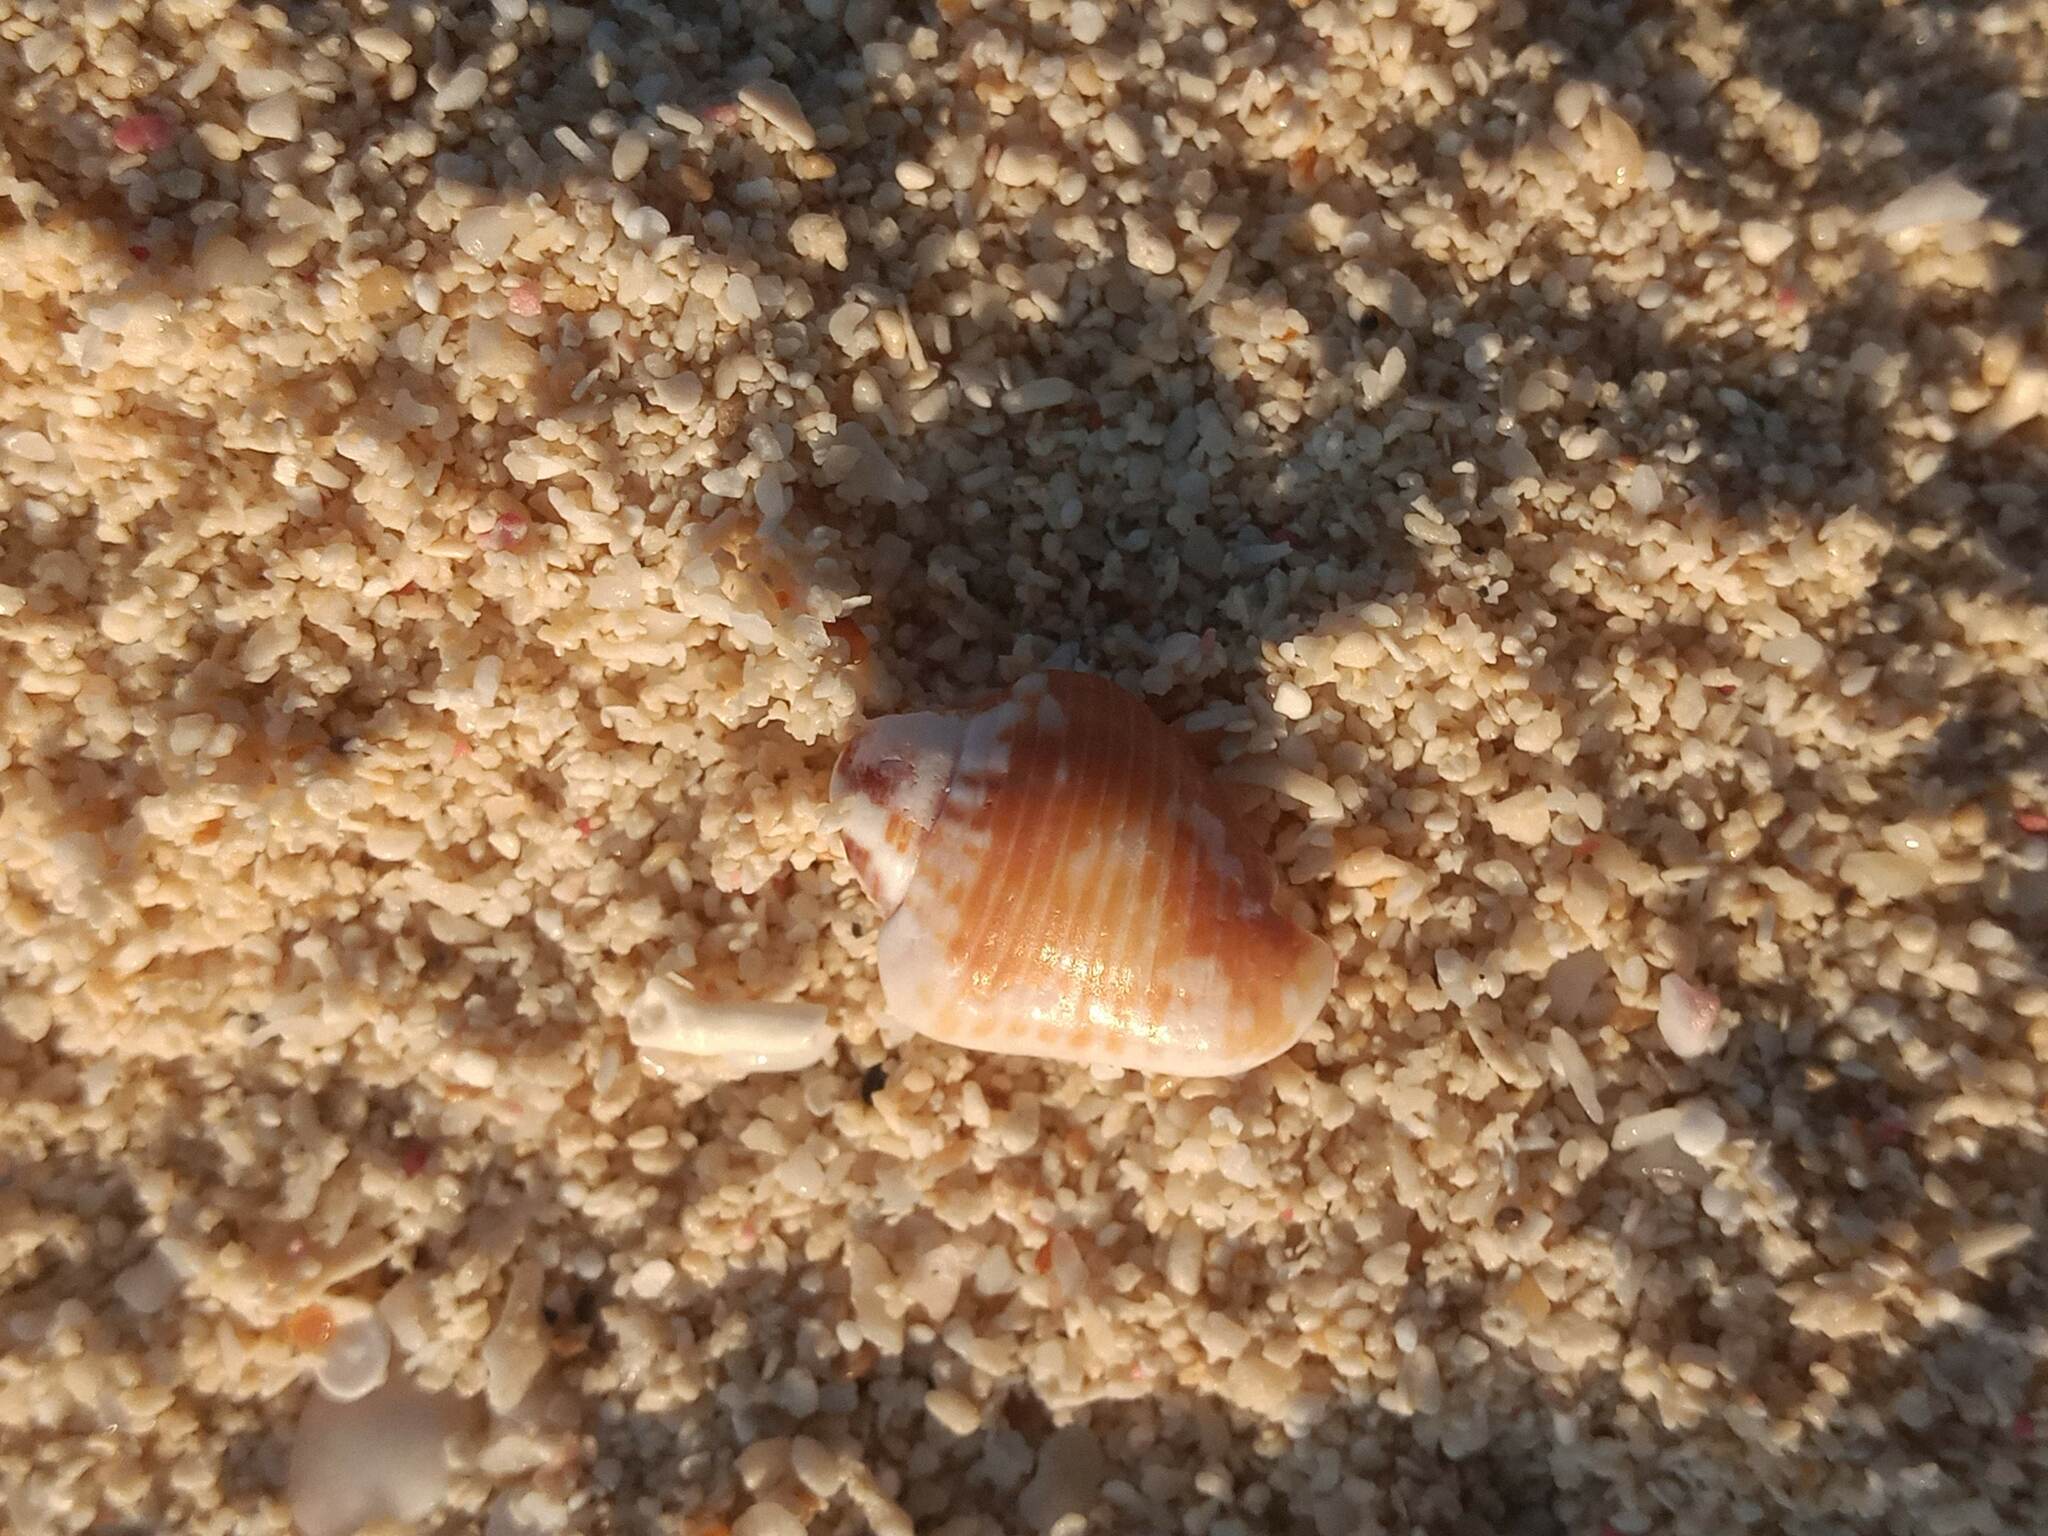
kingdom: Animalia
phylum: Mollusca
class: Gastropoda
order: Neogastropoda
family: Columbellidae
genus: Columbella
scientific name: Columbella mercatoria
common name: West indian dovesnail
